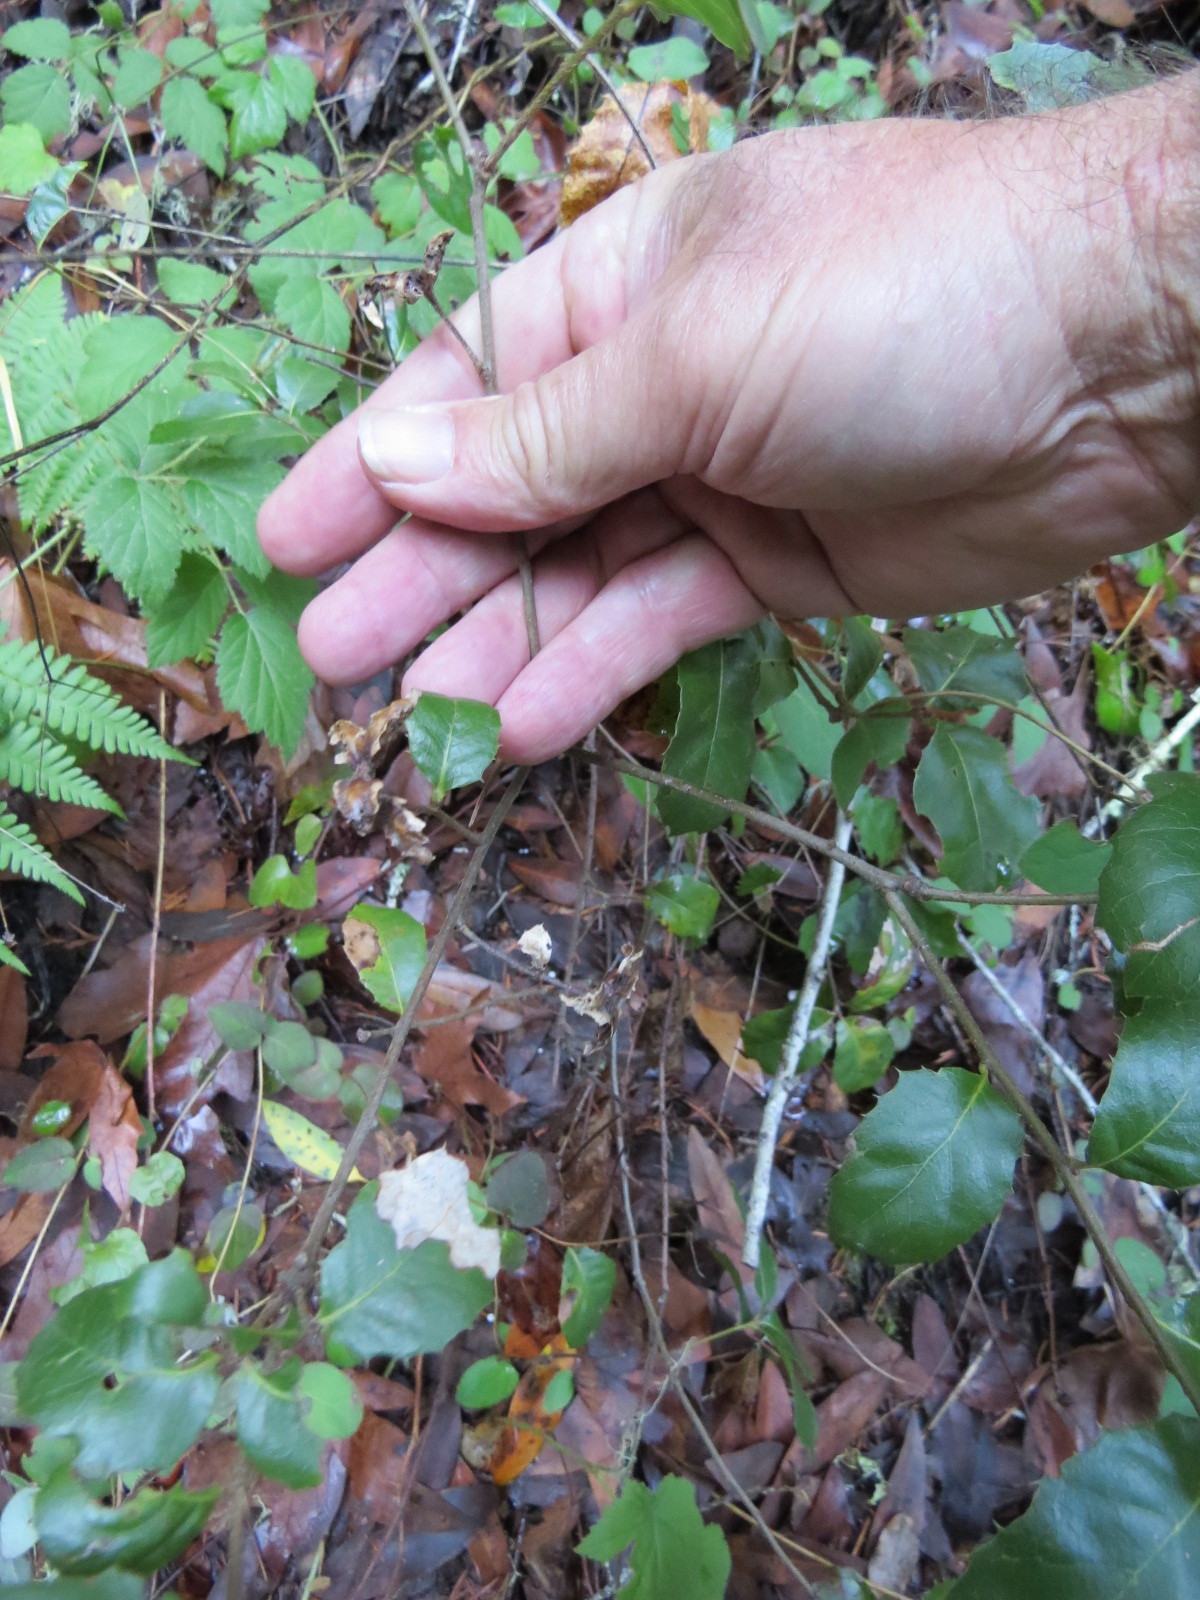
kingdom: Animalia
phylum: Arthropoda
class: Insecta
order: Hymenoptera
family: Cynipidae
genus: Melikaiella
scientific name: Melikaiella
